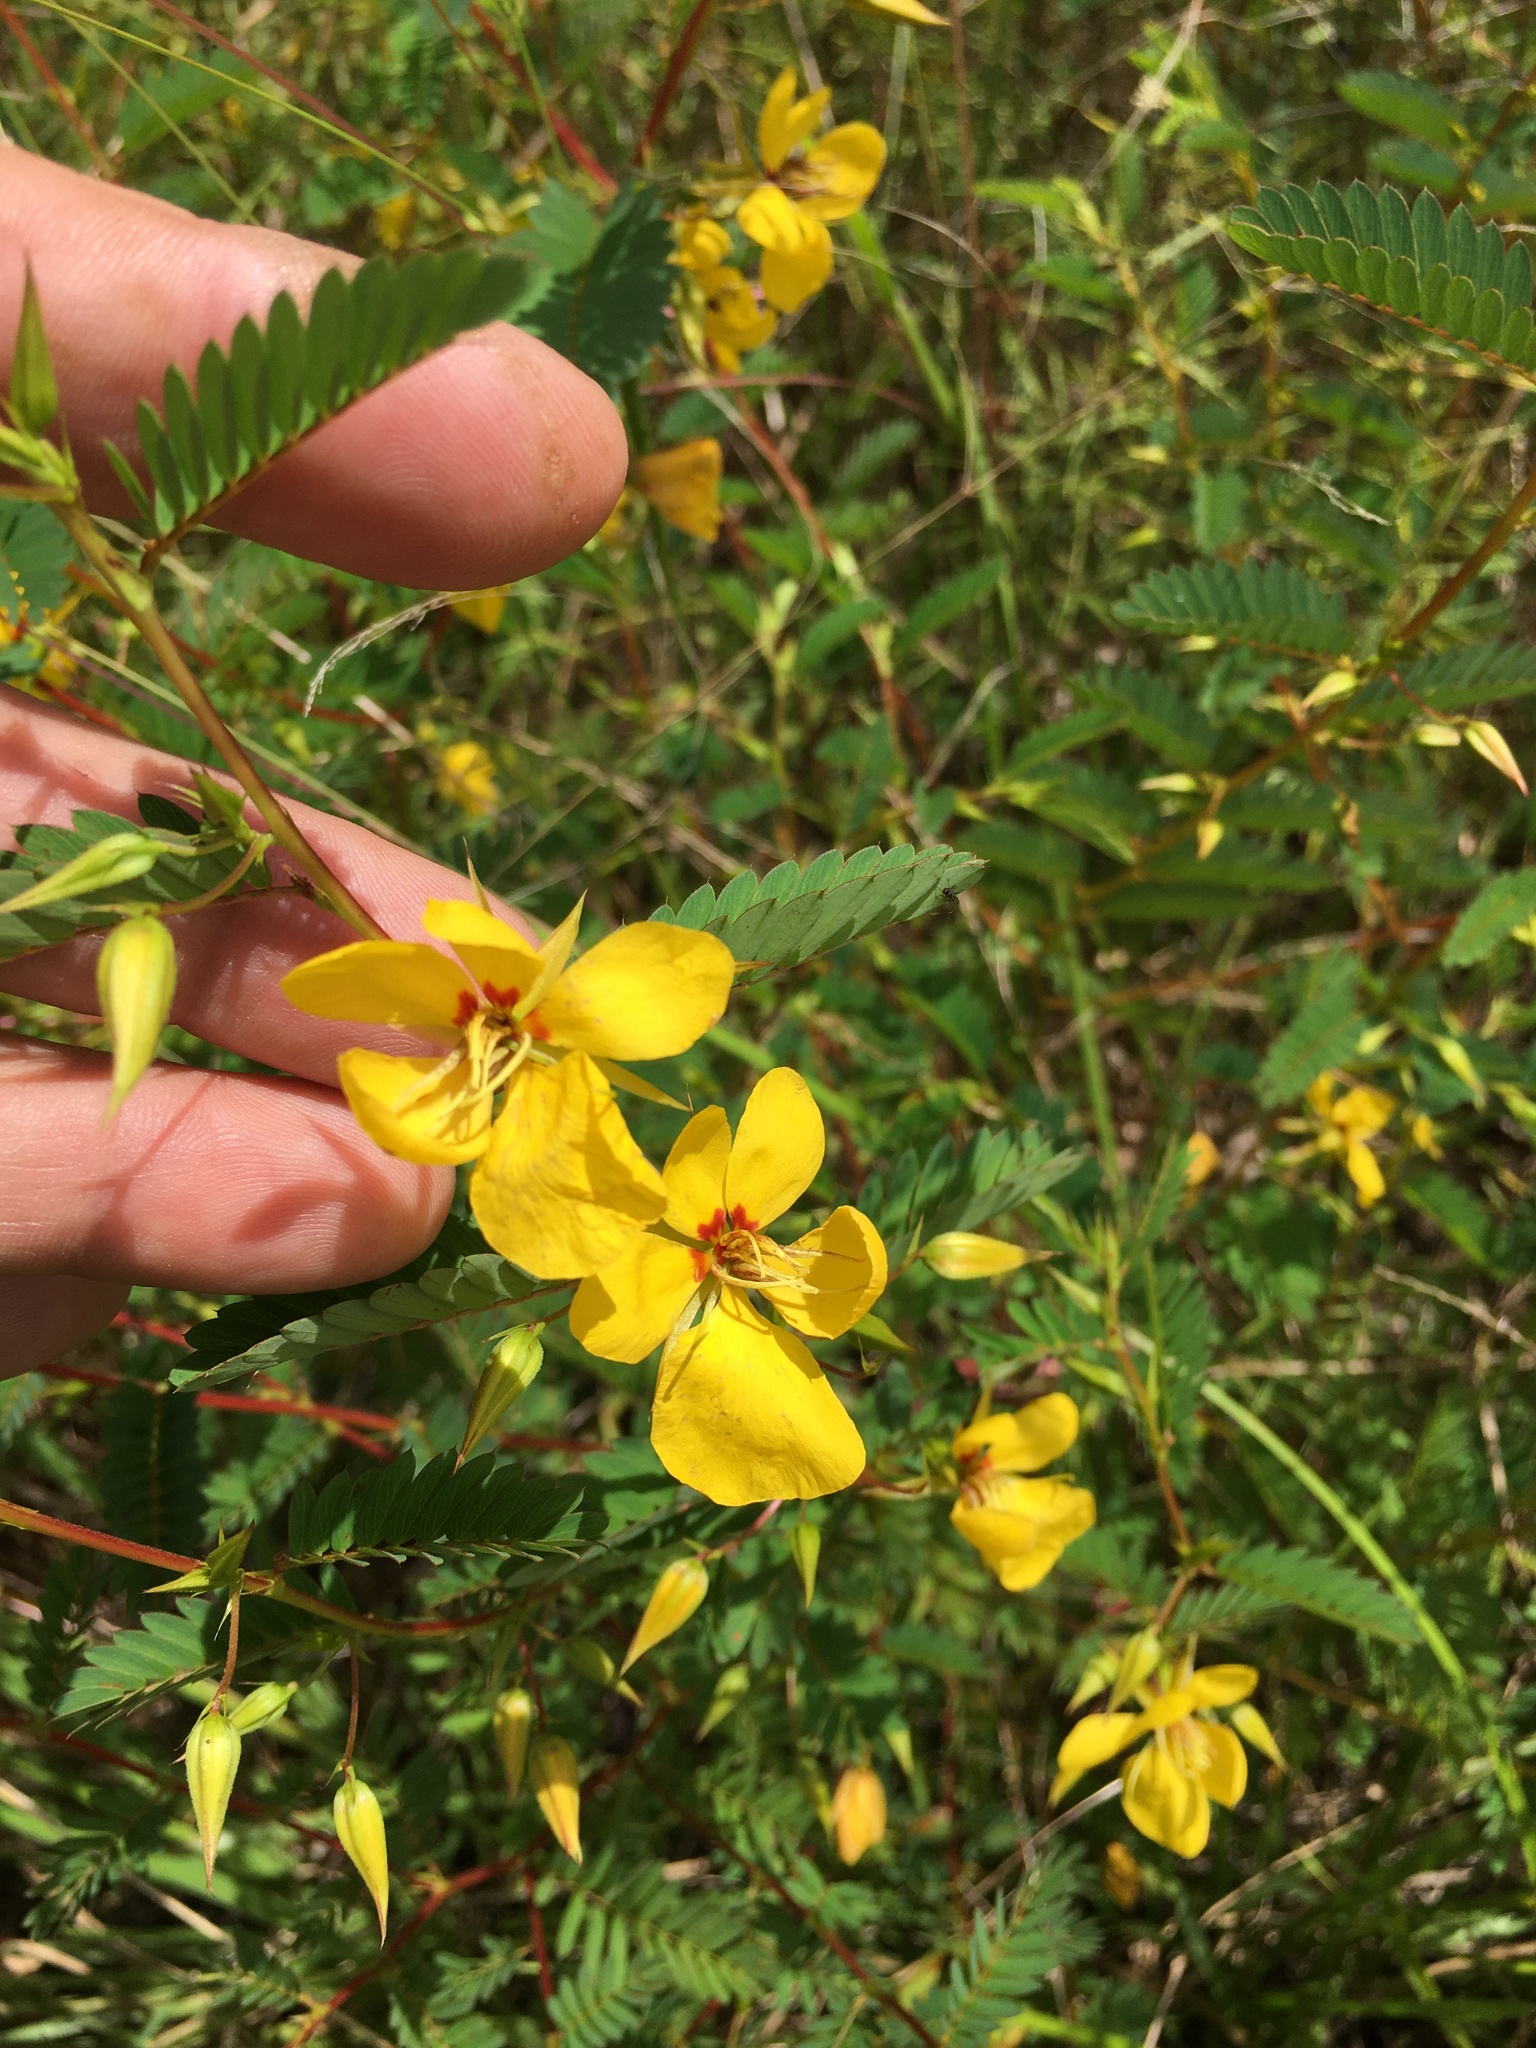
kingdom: Plantae
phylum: Tracheophyta
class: Magnoliopsida
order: Fabales
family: Fabaceae
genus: Chamaecrista
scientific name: Chamaecrista fasciculata
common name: Golden cassia
